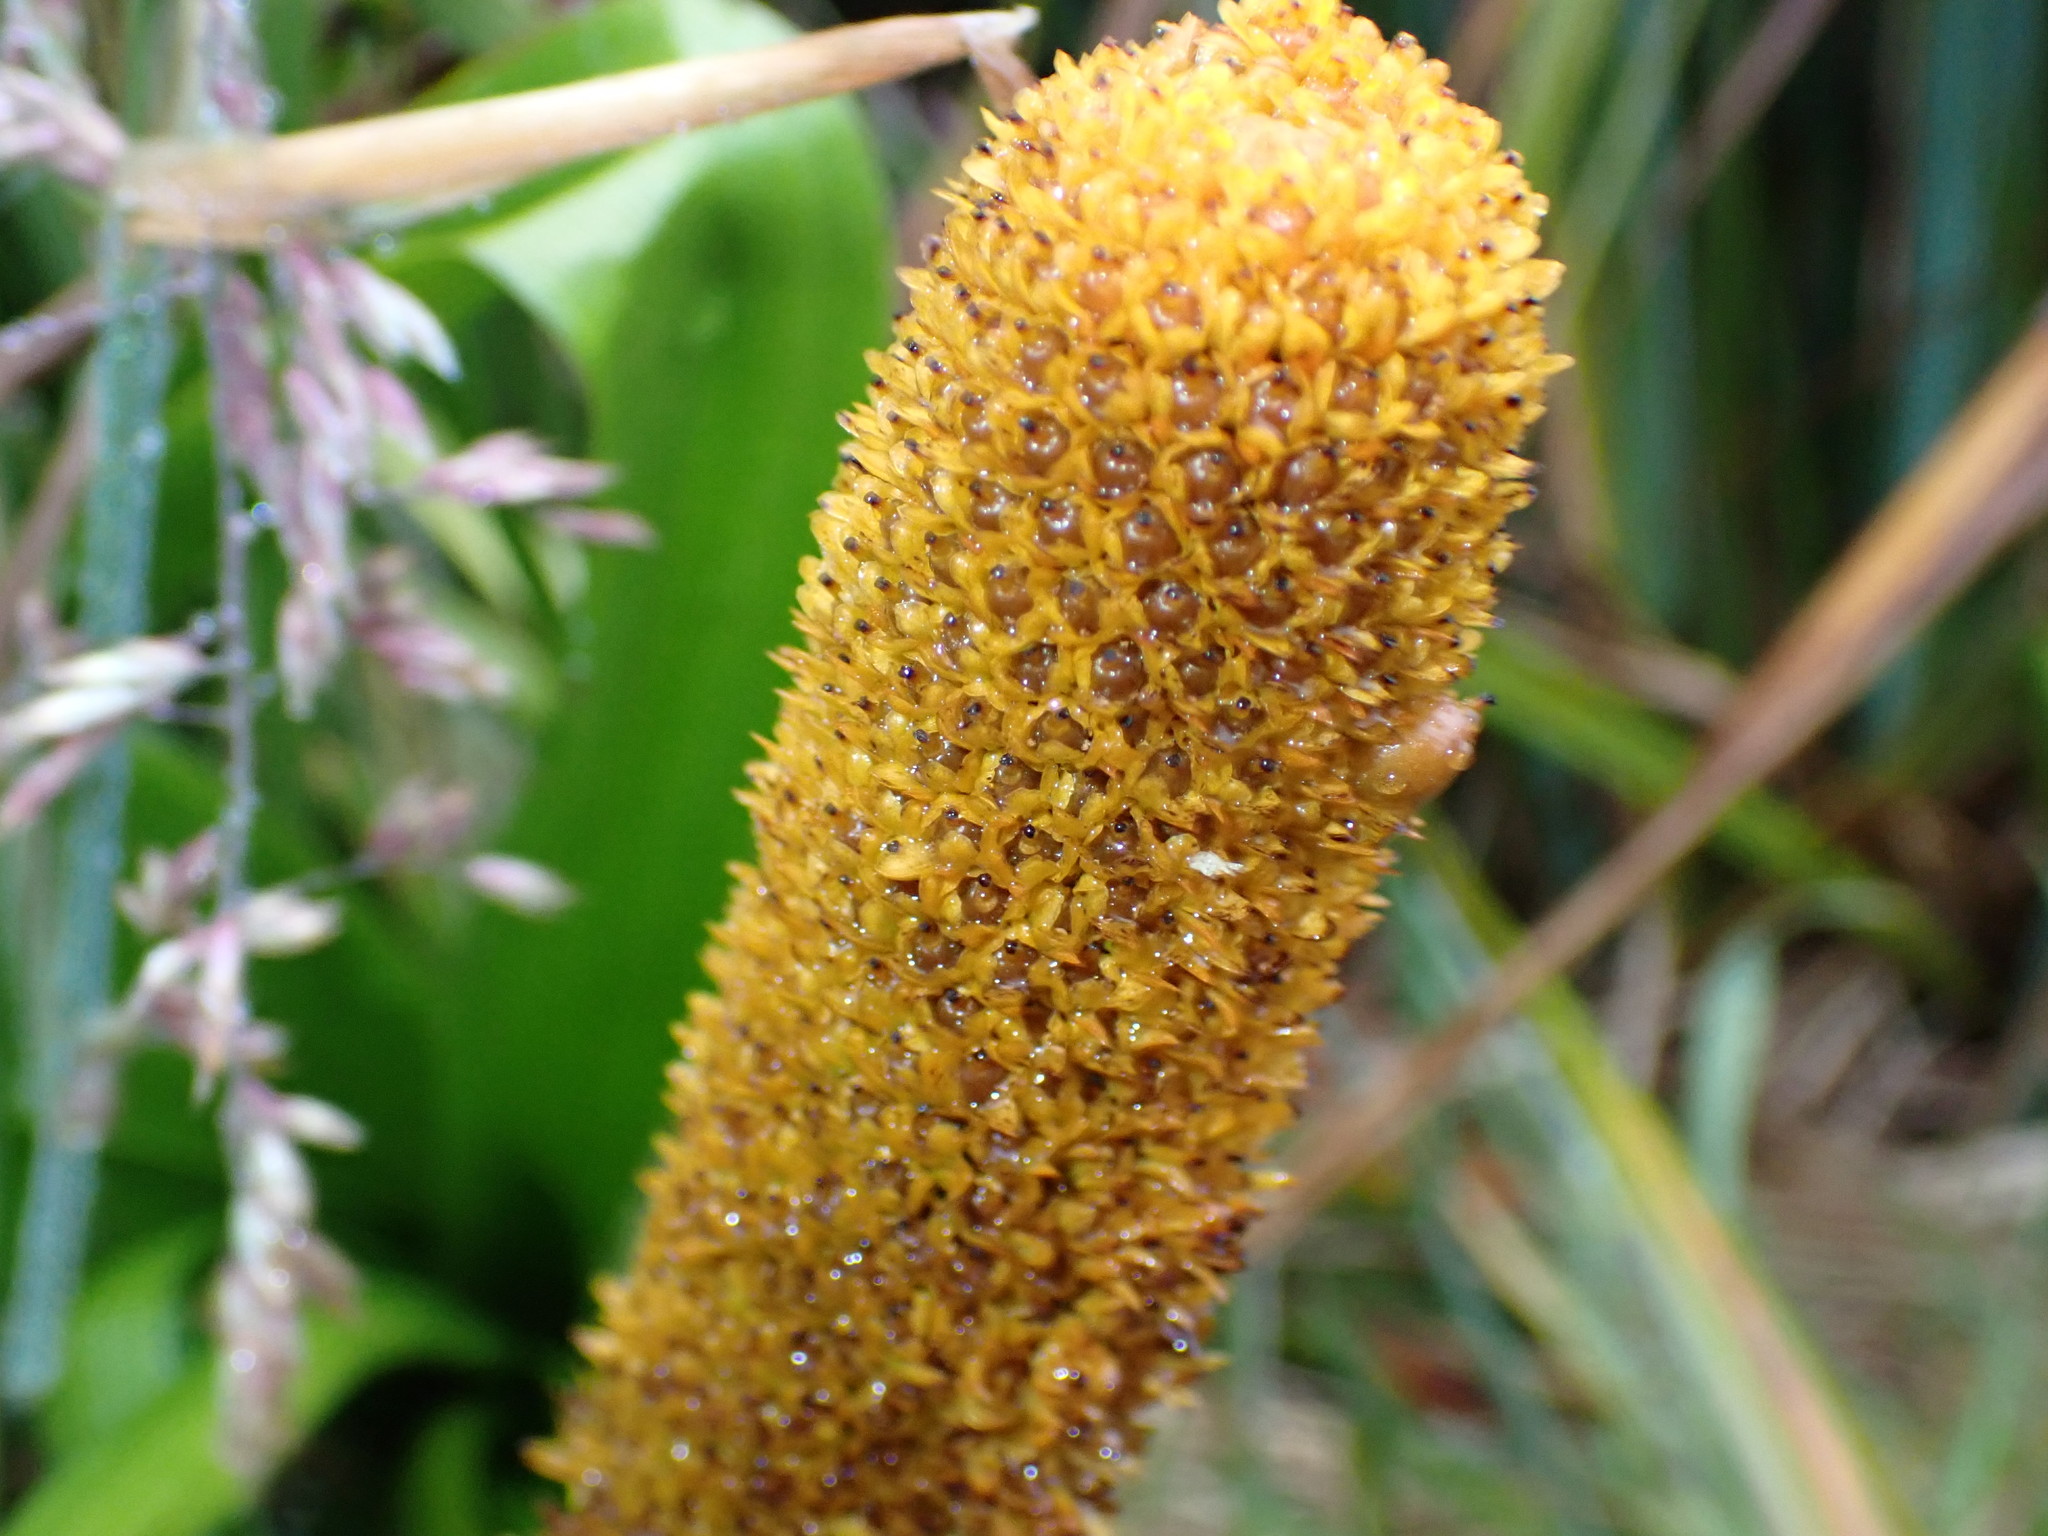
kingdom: Plantae
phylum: Tracheophyta
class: Liliopsida
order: Asparagales
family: Asphodelaceae
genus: Bulbinella
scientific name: Bulbinella rossii
